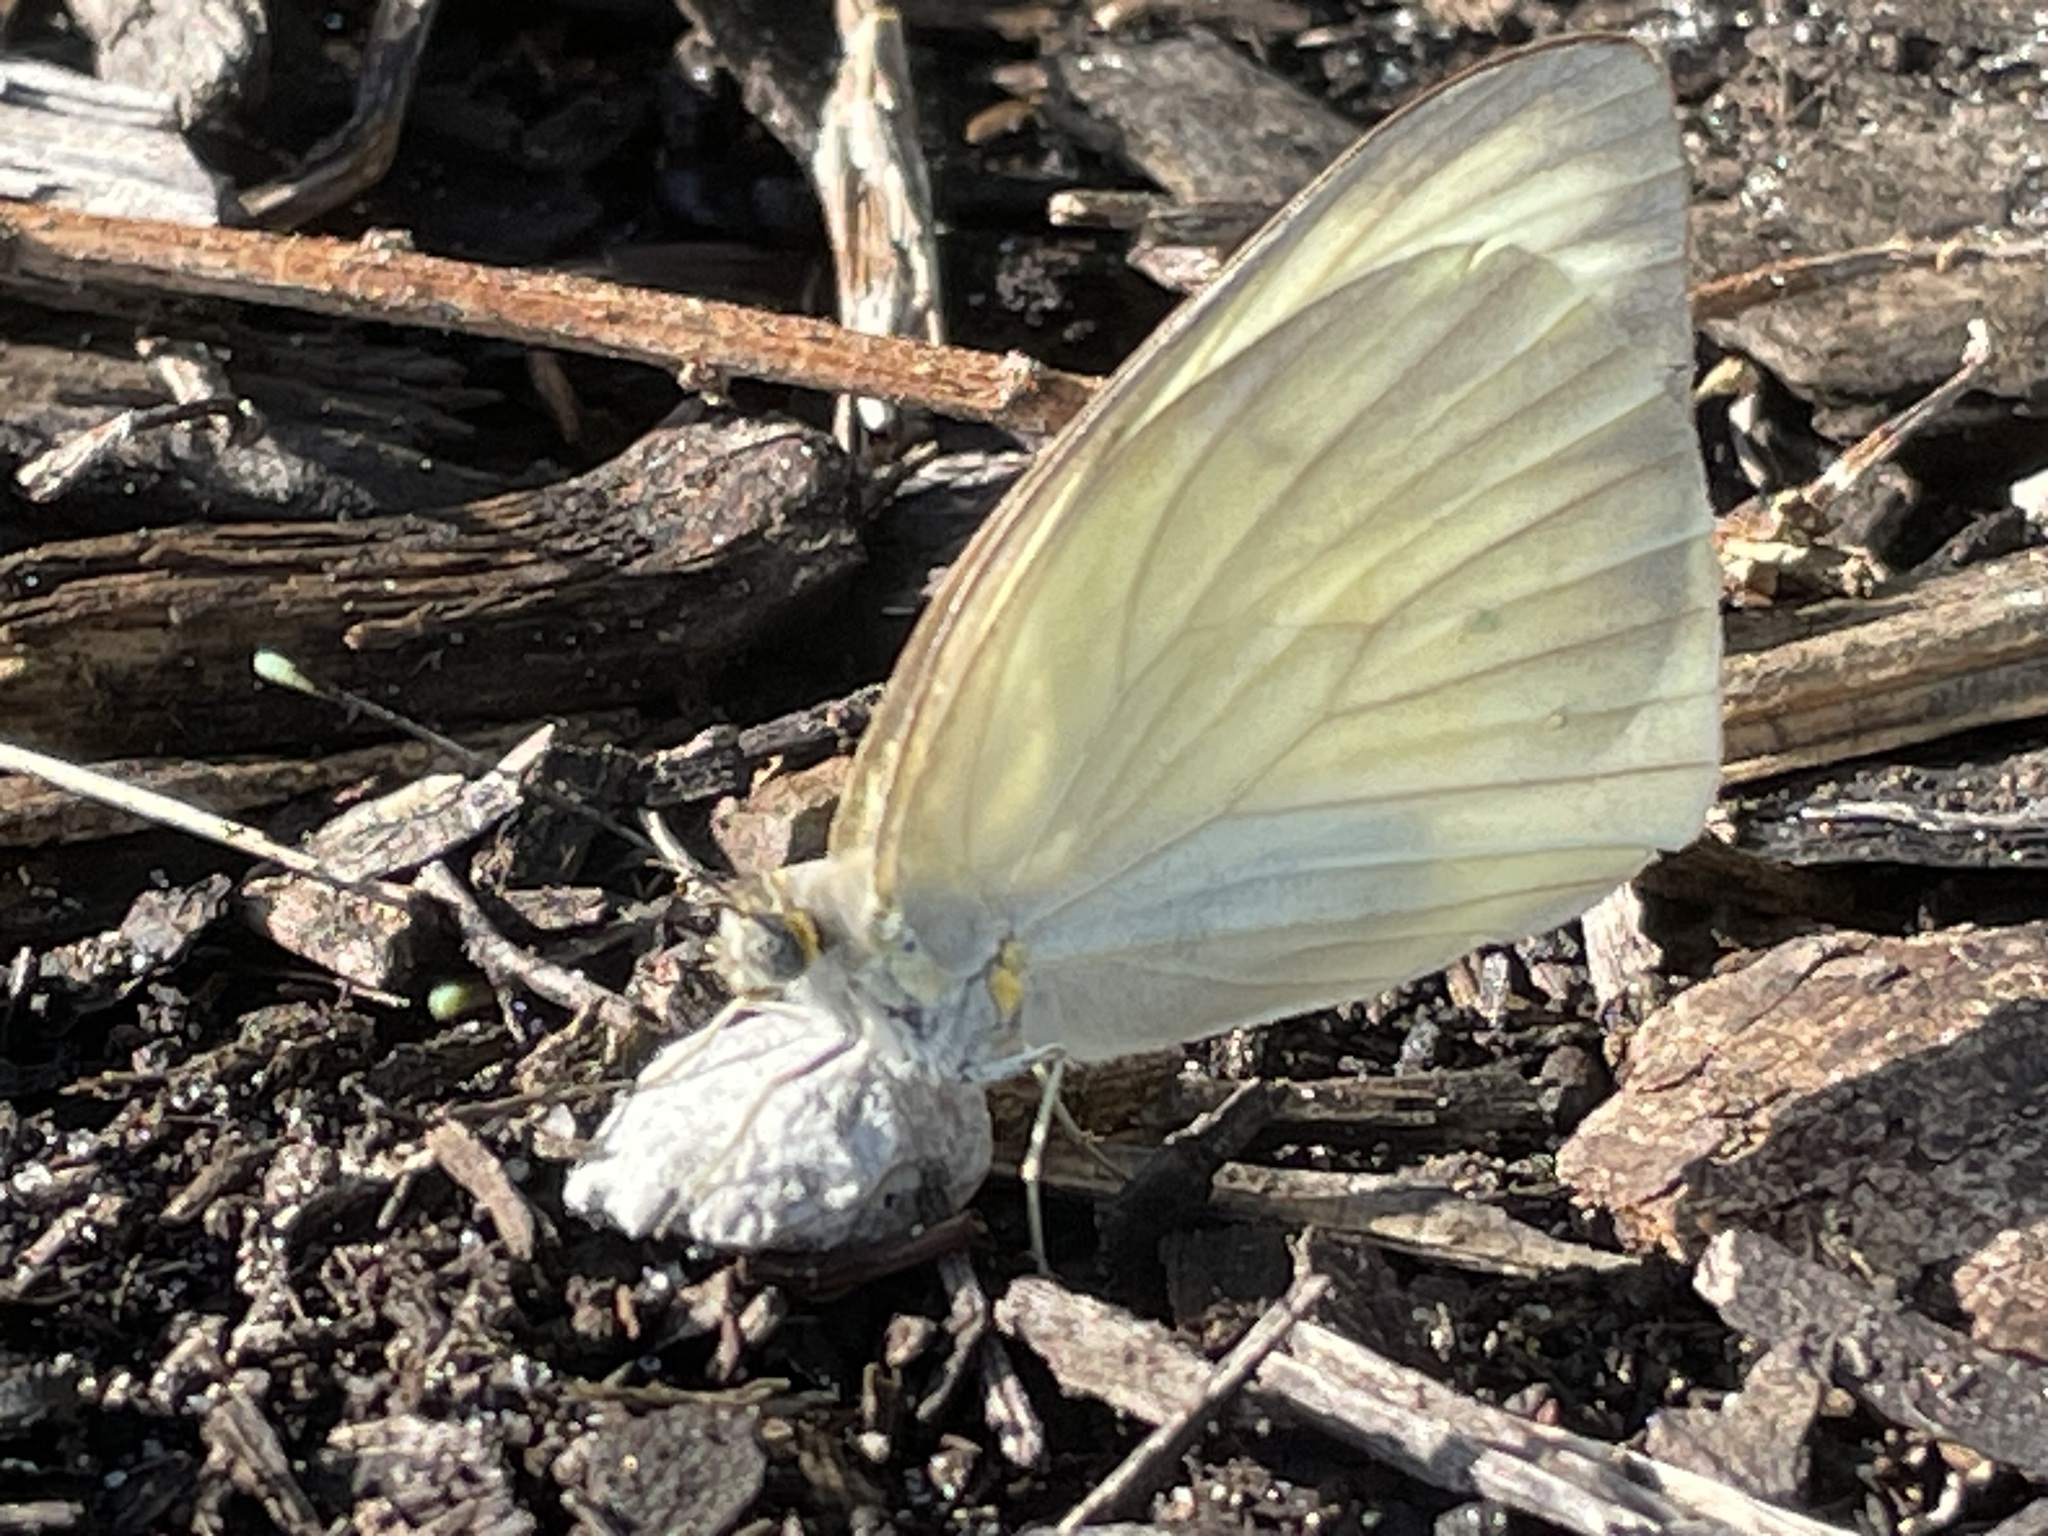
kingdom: Animalia
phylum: Arthropoda
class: Insecta
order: Lepidoptera
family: Pieridae
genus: Ascia
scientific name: Ascia monuste
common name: Great southern white
